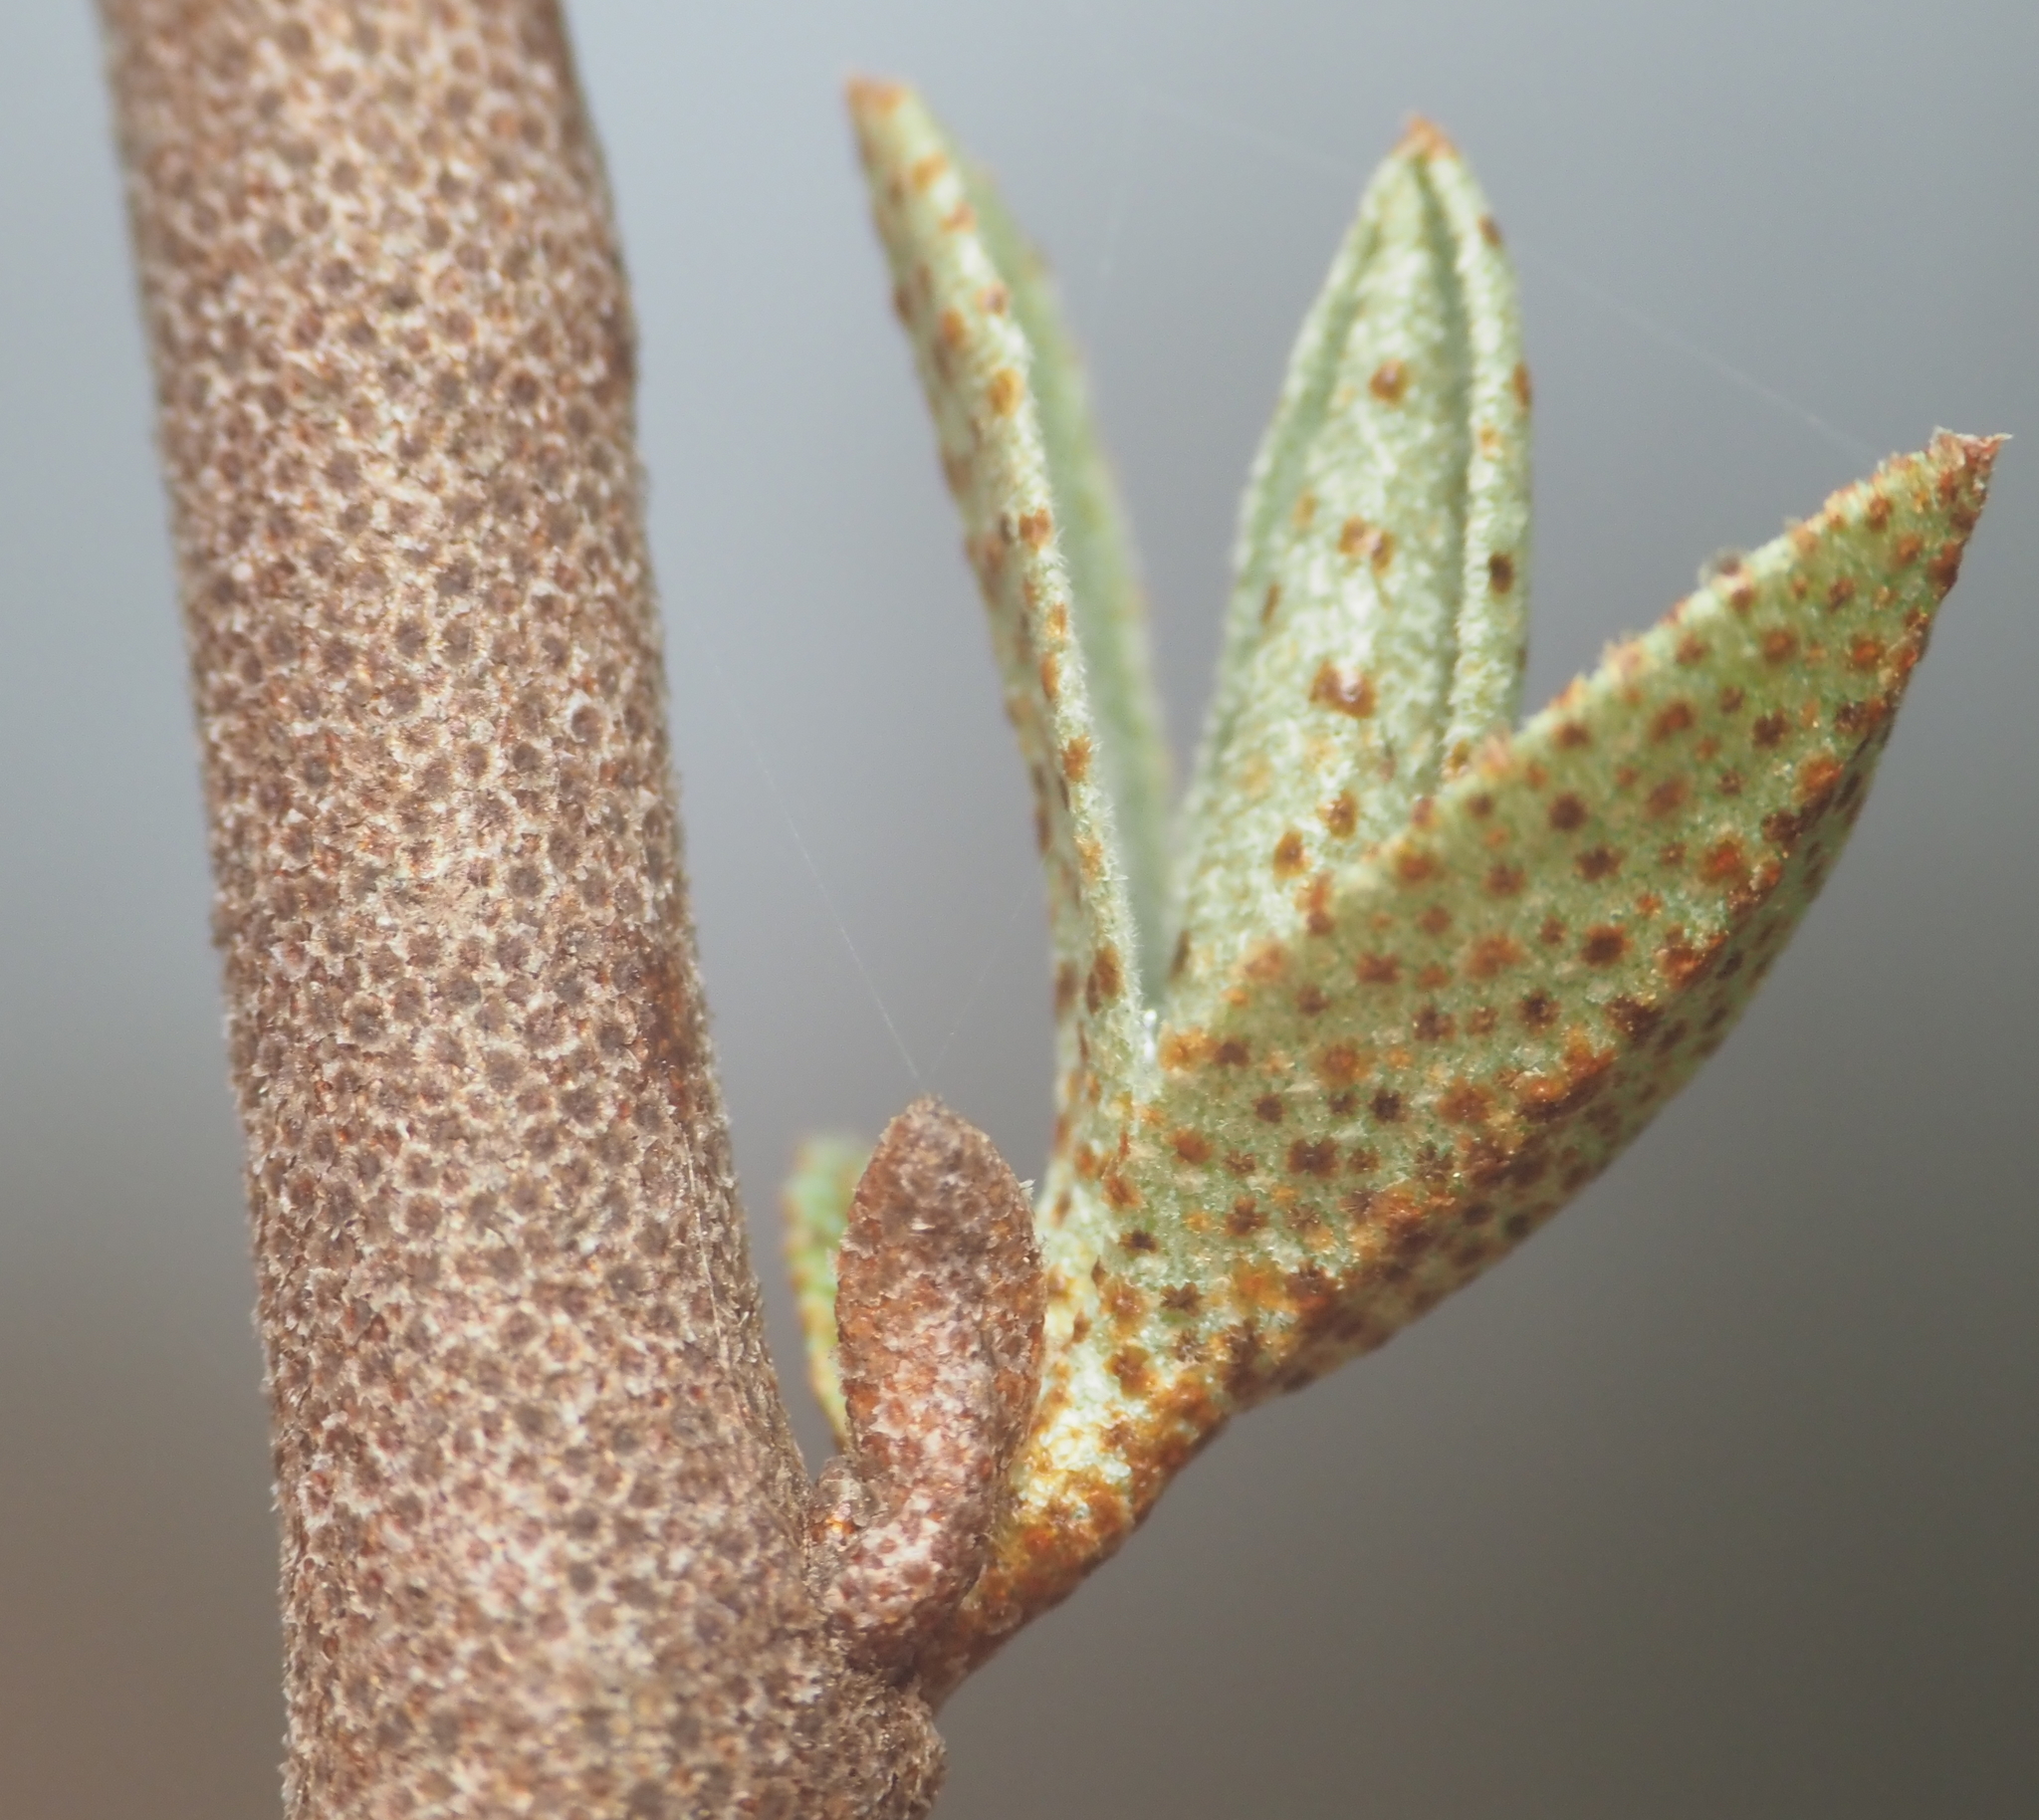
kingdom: Plantae
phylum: Tracheophyta
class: Magnoliopsida
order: Rosales
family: Elaeagnaceae
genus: Elaeagnus
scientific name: Elaeagnus umbellata
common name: Autumn olive
